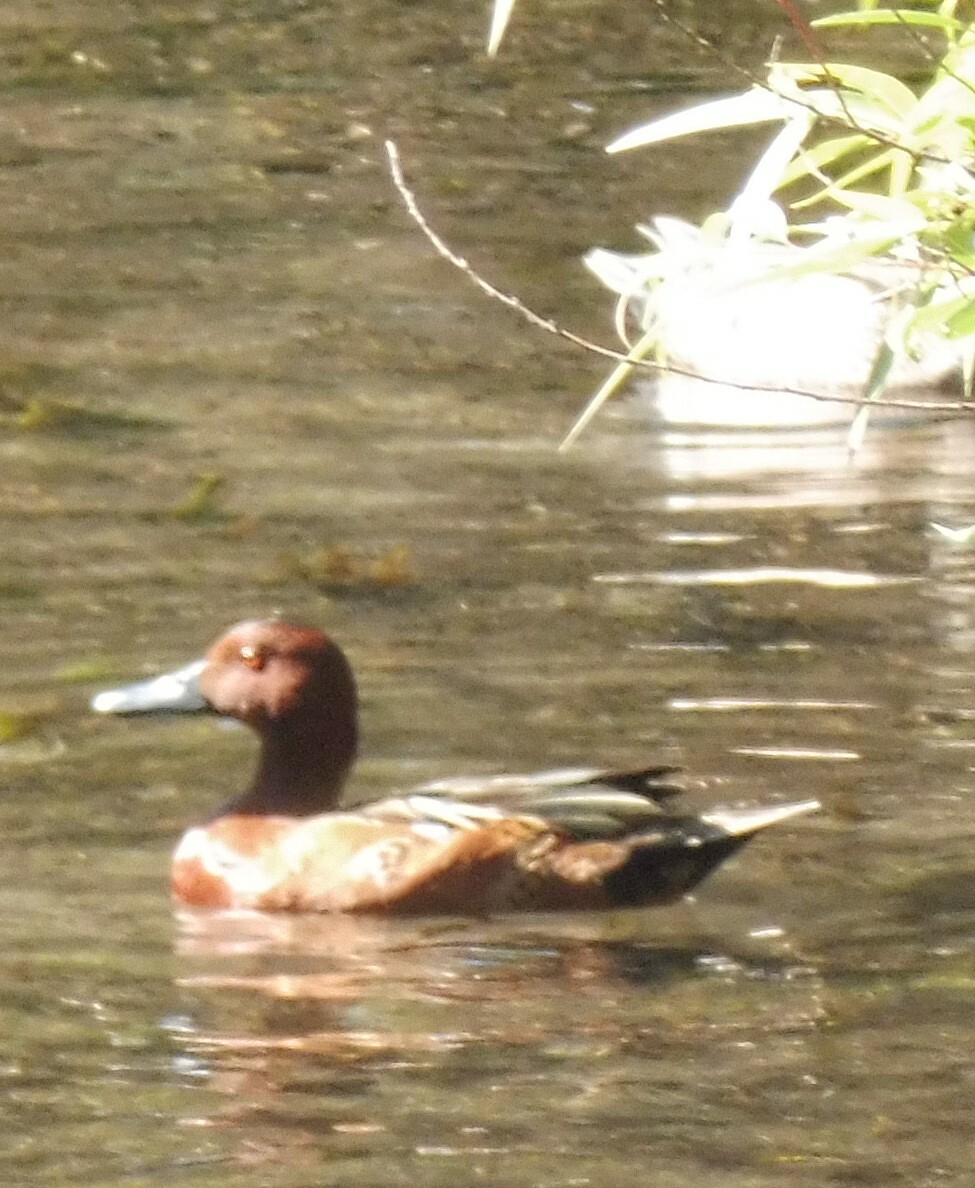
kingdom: Animalia
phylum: Chordata
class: Aves
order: Anseriformes
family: Anatidae
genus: Spatula
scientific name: Spatula cyanoptera
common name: Cinnamon teal
